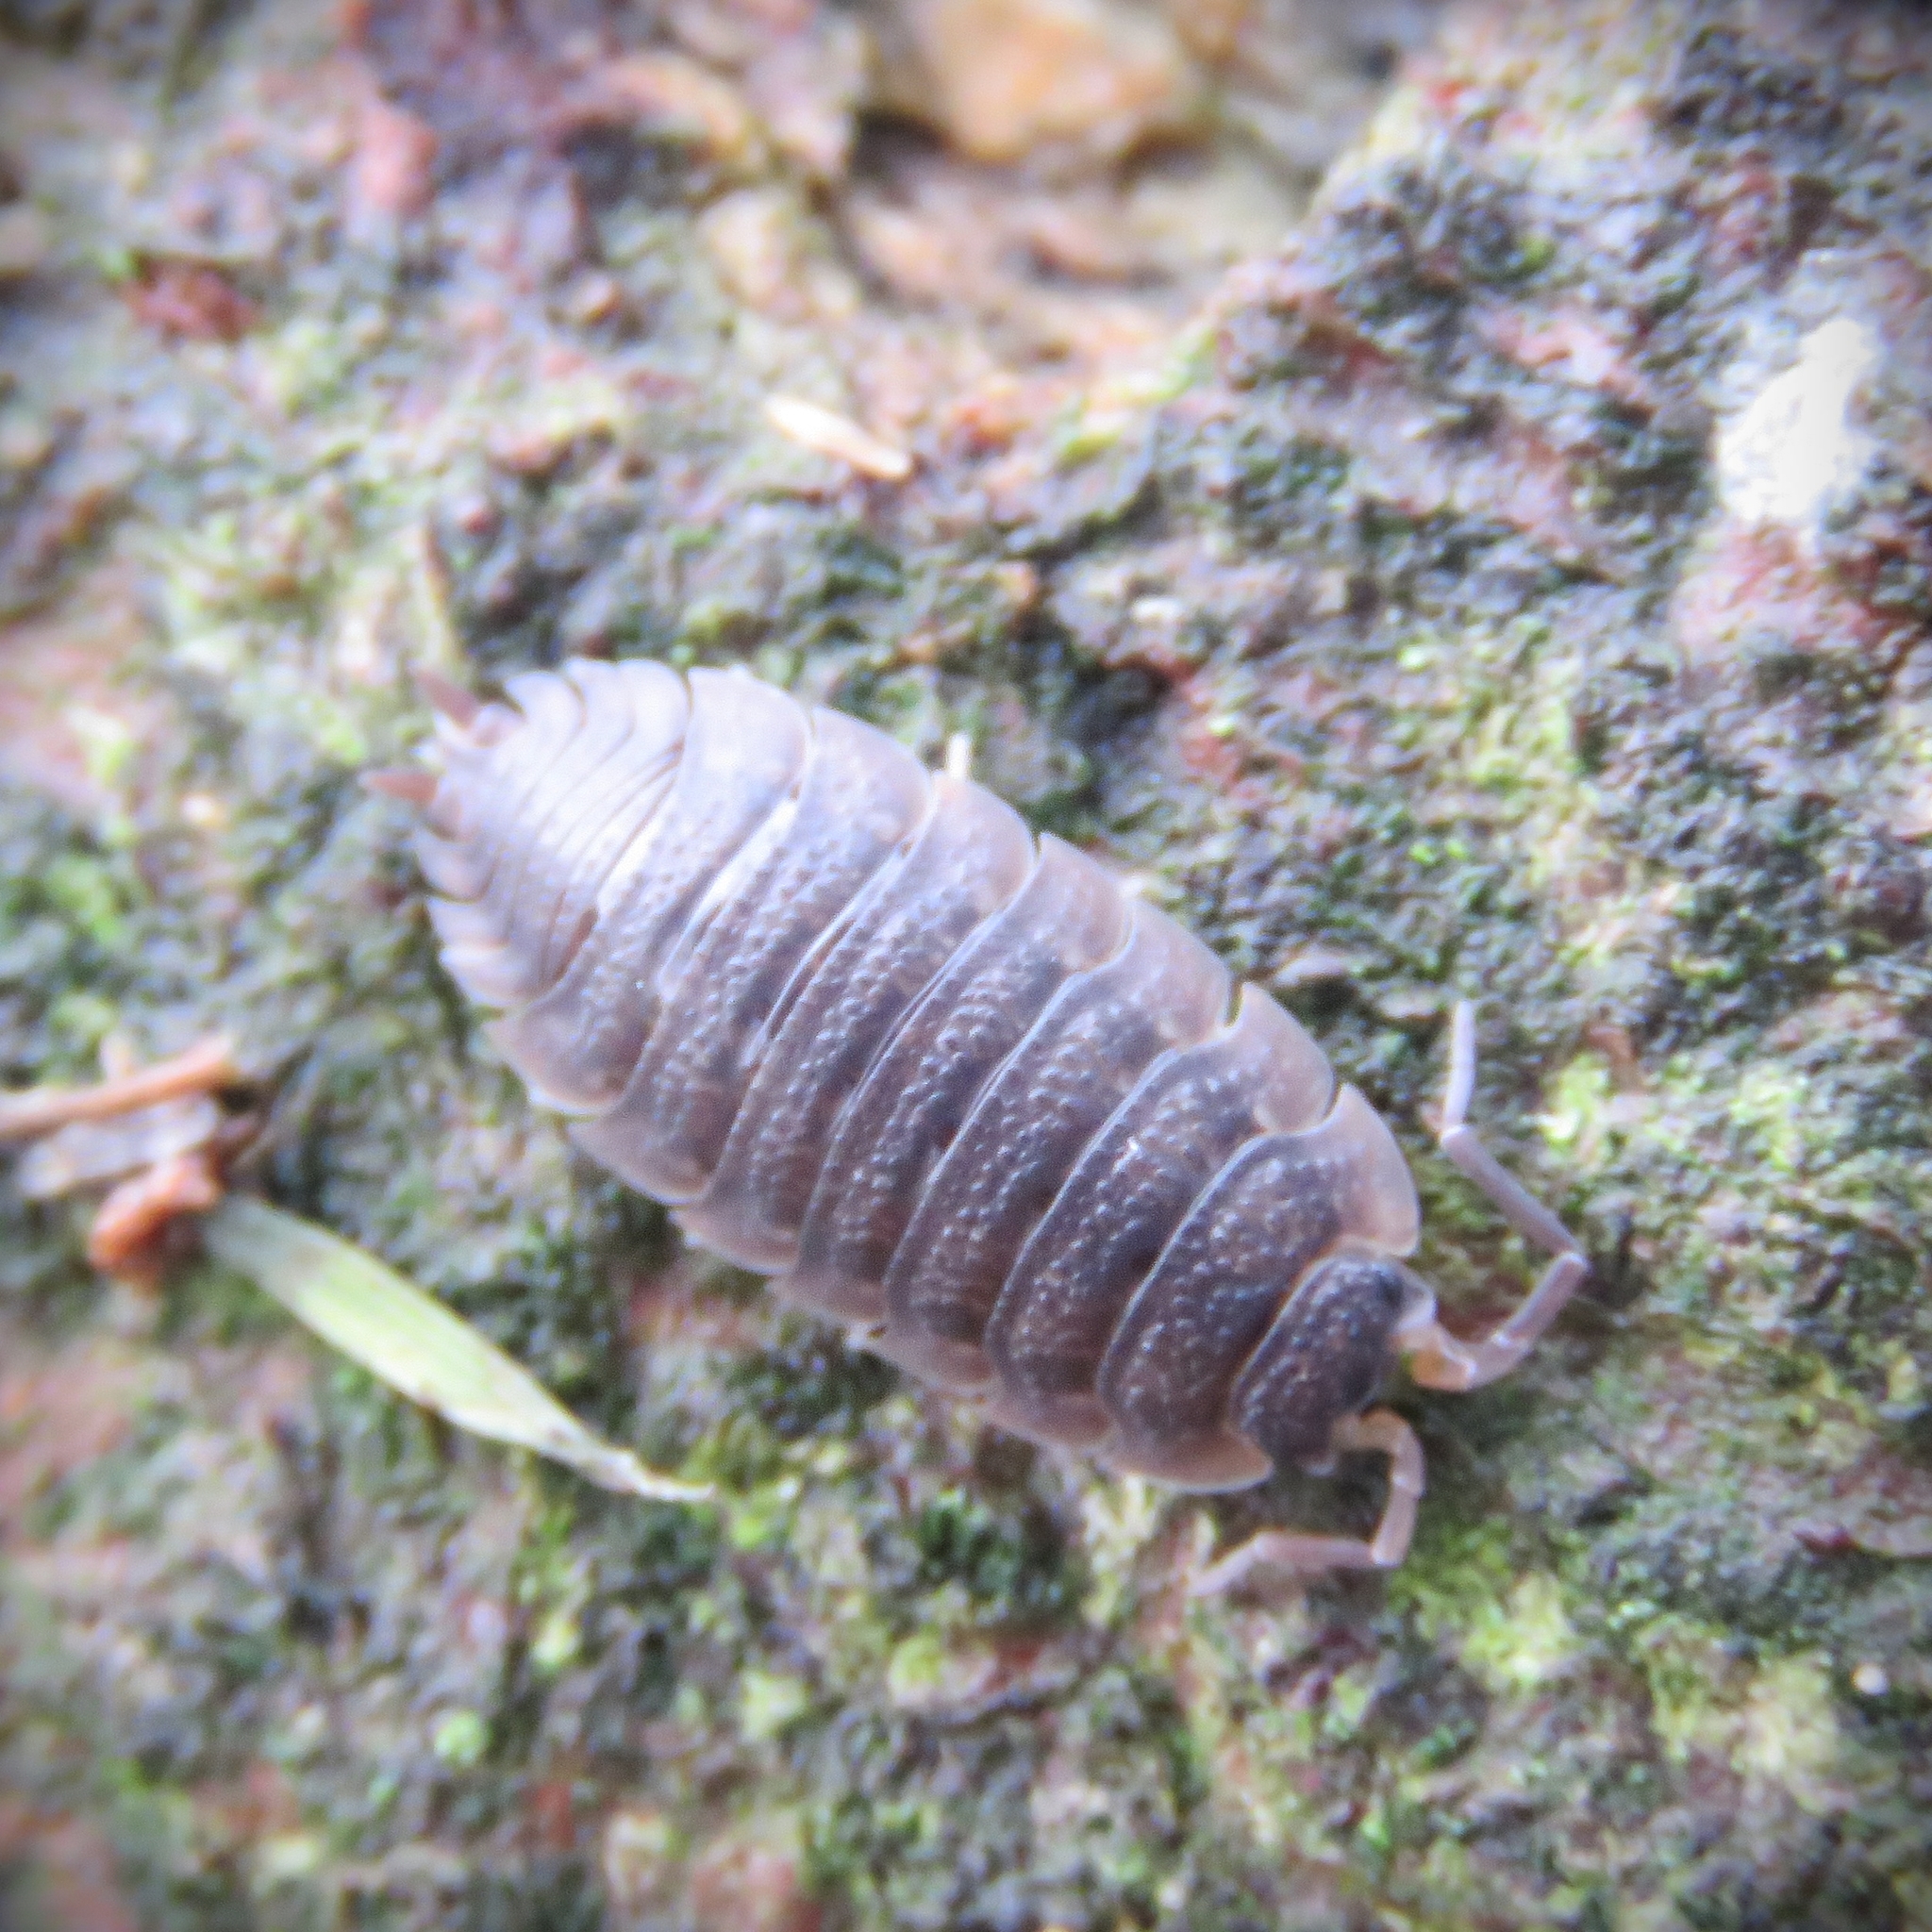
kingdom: Animalia
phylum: Arthropoda
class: Malacostraca
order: Isopoda
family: Porcellionidae
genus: Porcellio
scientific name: Porcellio scaber
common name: Common rough woodlouse
